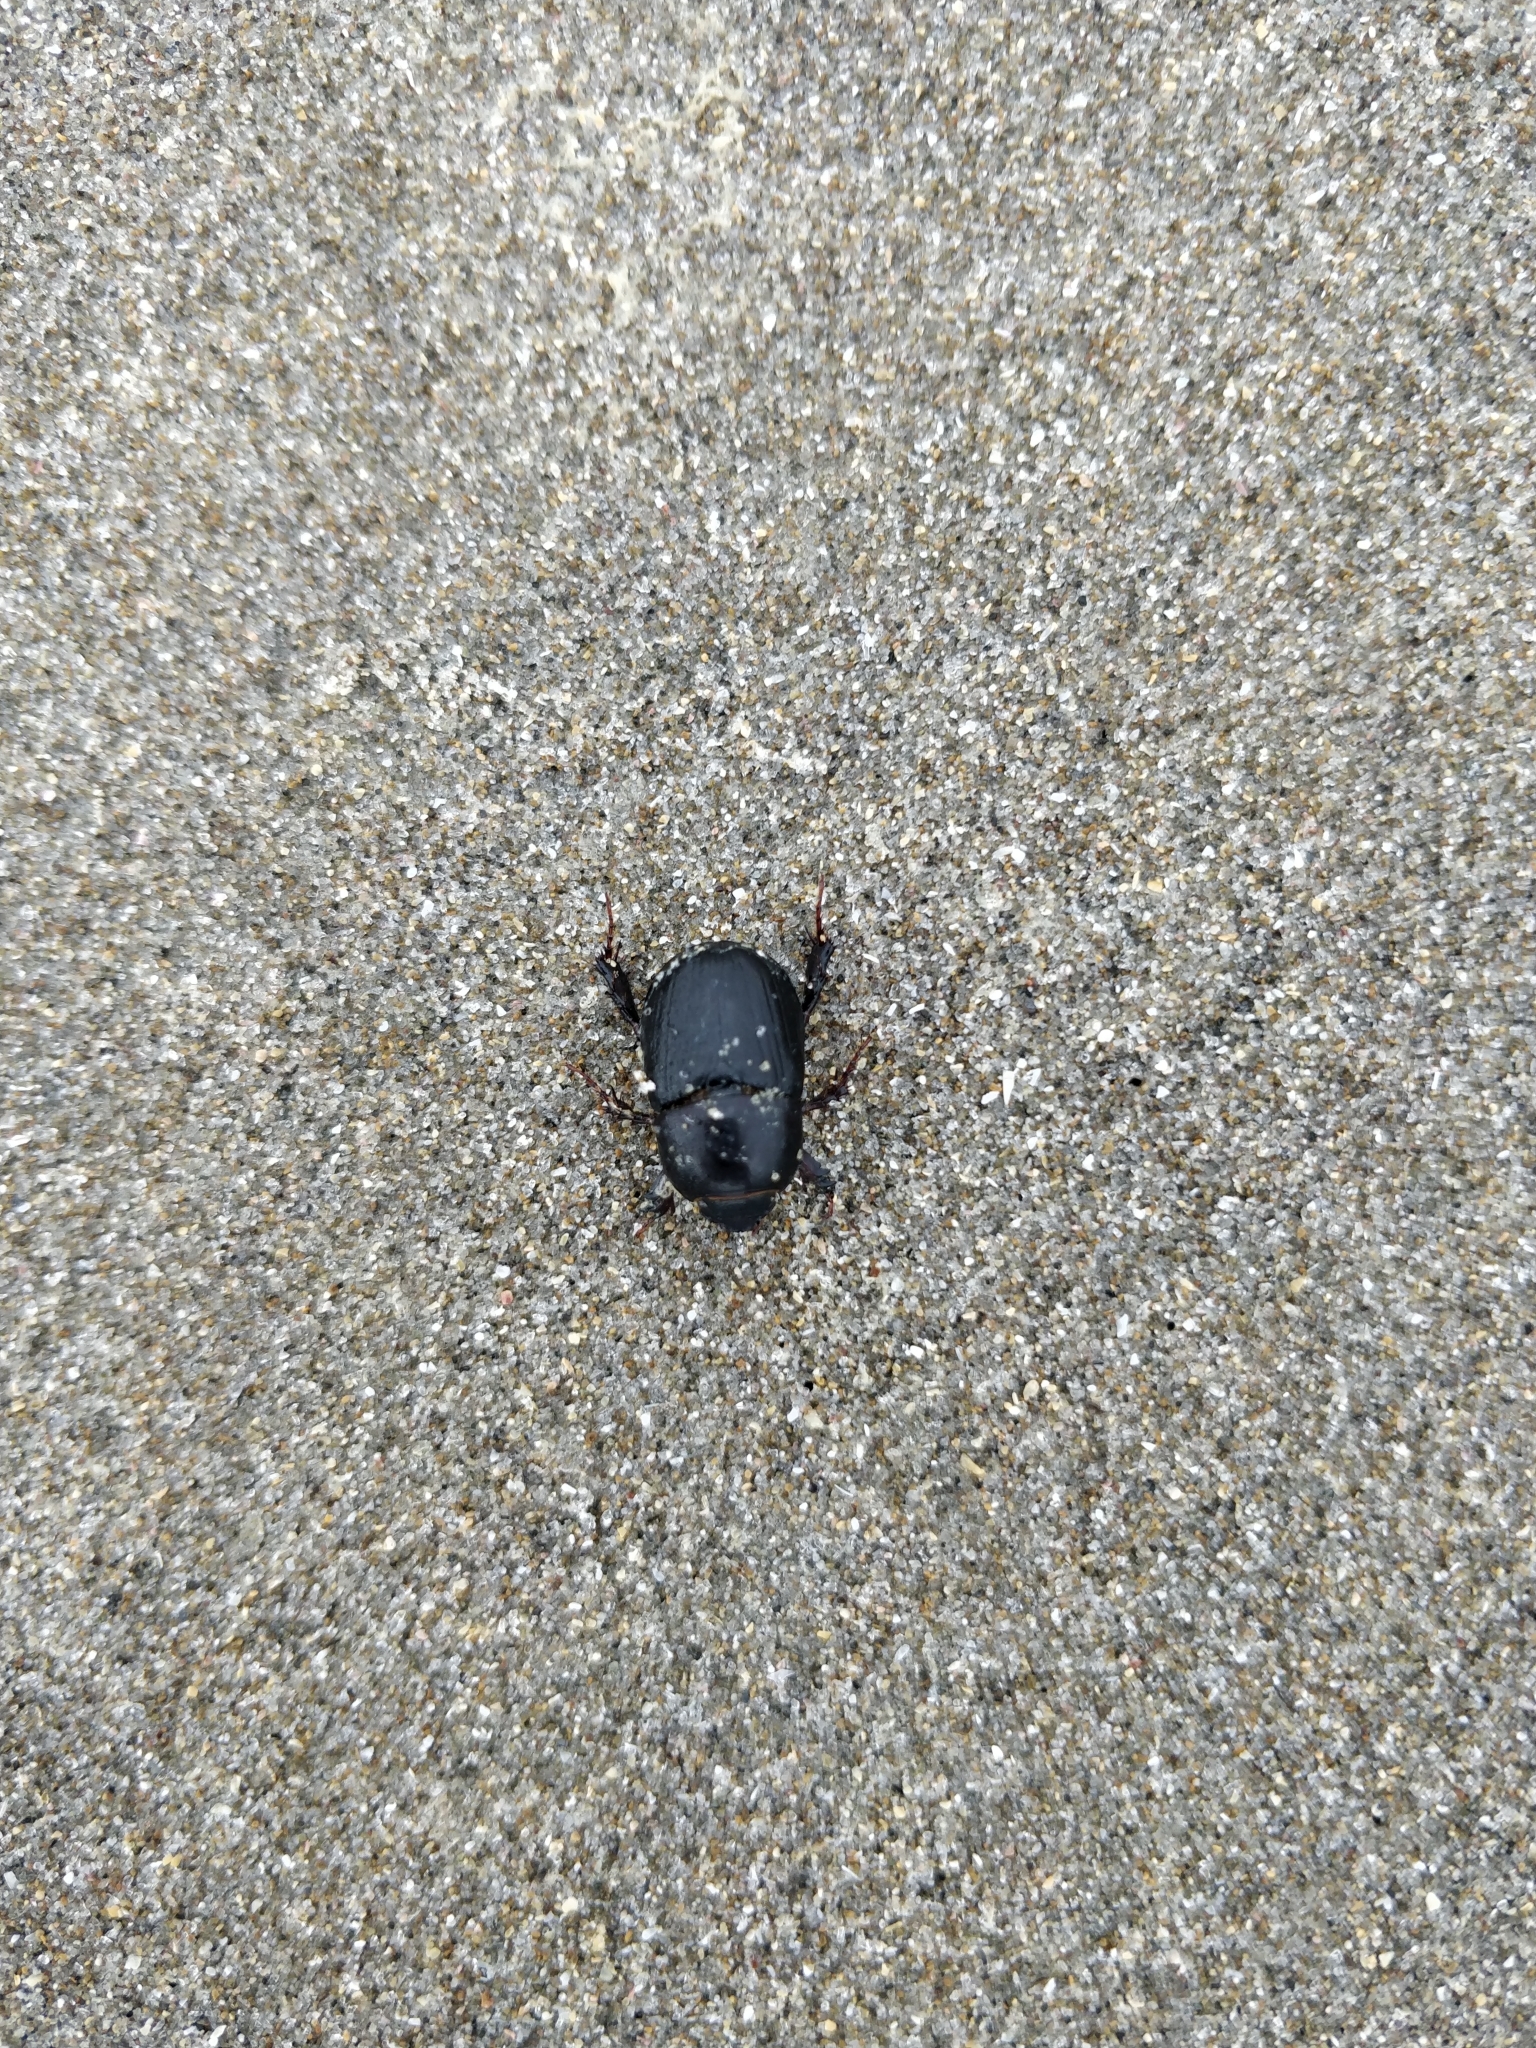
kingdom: Animalia
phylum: Arthropoda
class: Insecta
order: Coleoptera
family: Scarabaeidae
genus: Heteronychus
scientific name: Heteronychus arator
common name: African black beetle
